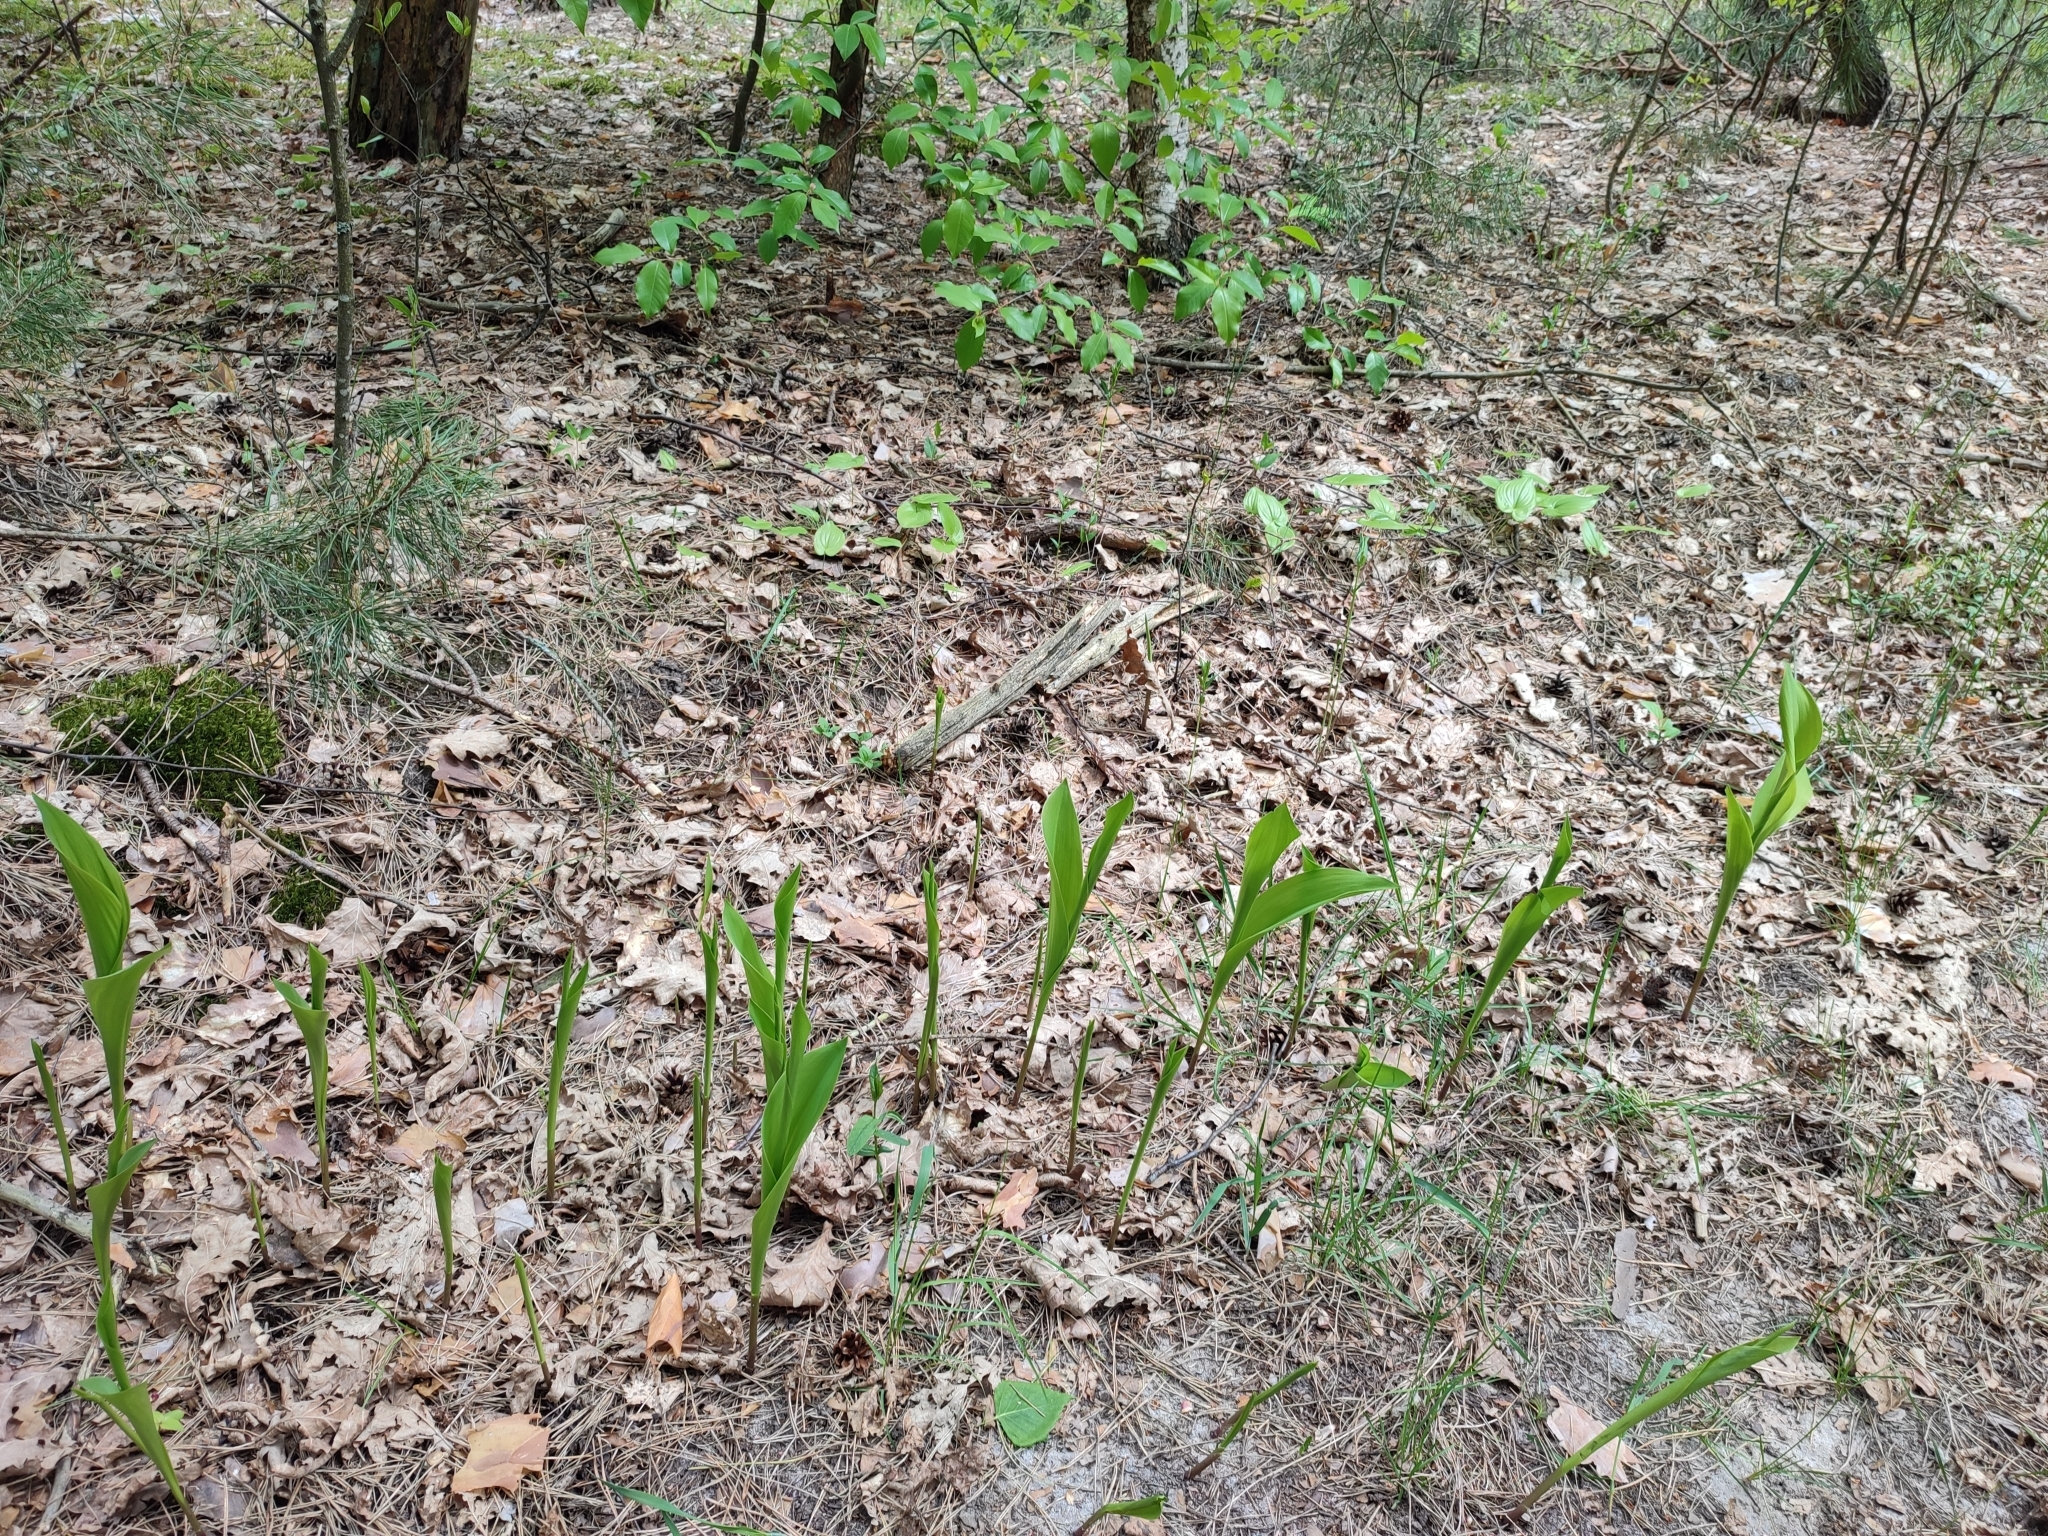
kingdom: Plantae
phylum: Tracheophyta
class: Liliopsida
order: Asparagales
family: Asparagaceae
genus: Convallaria
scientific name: Convallaria majalis
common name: Lily-of-the-valley
